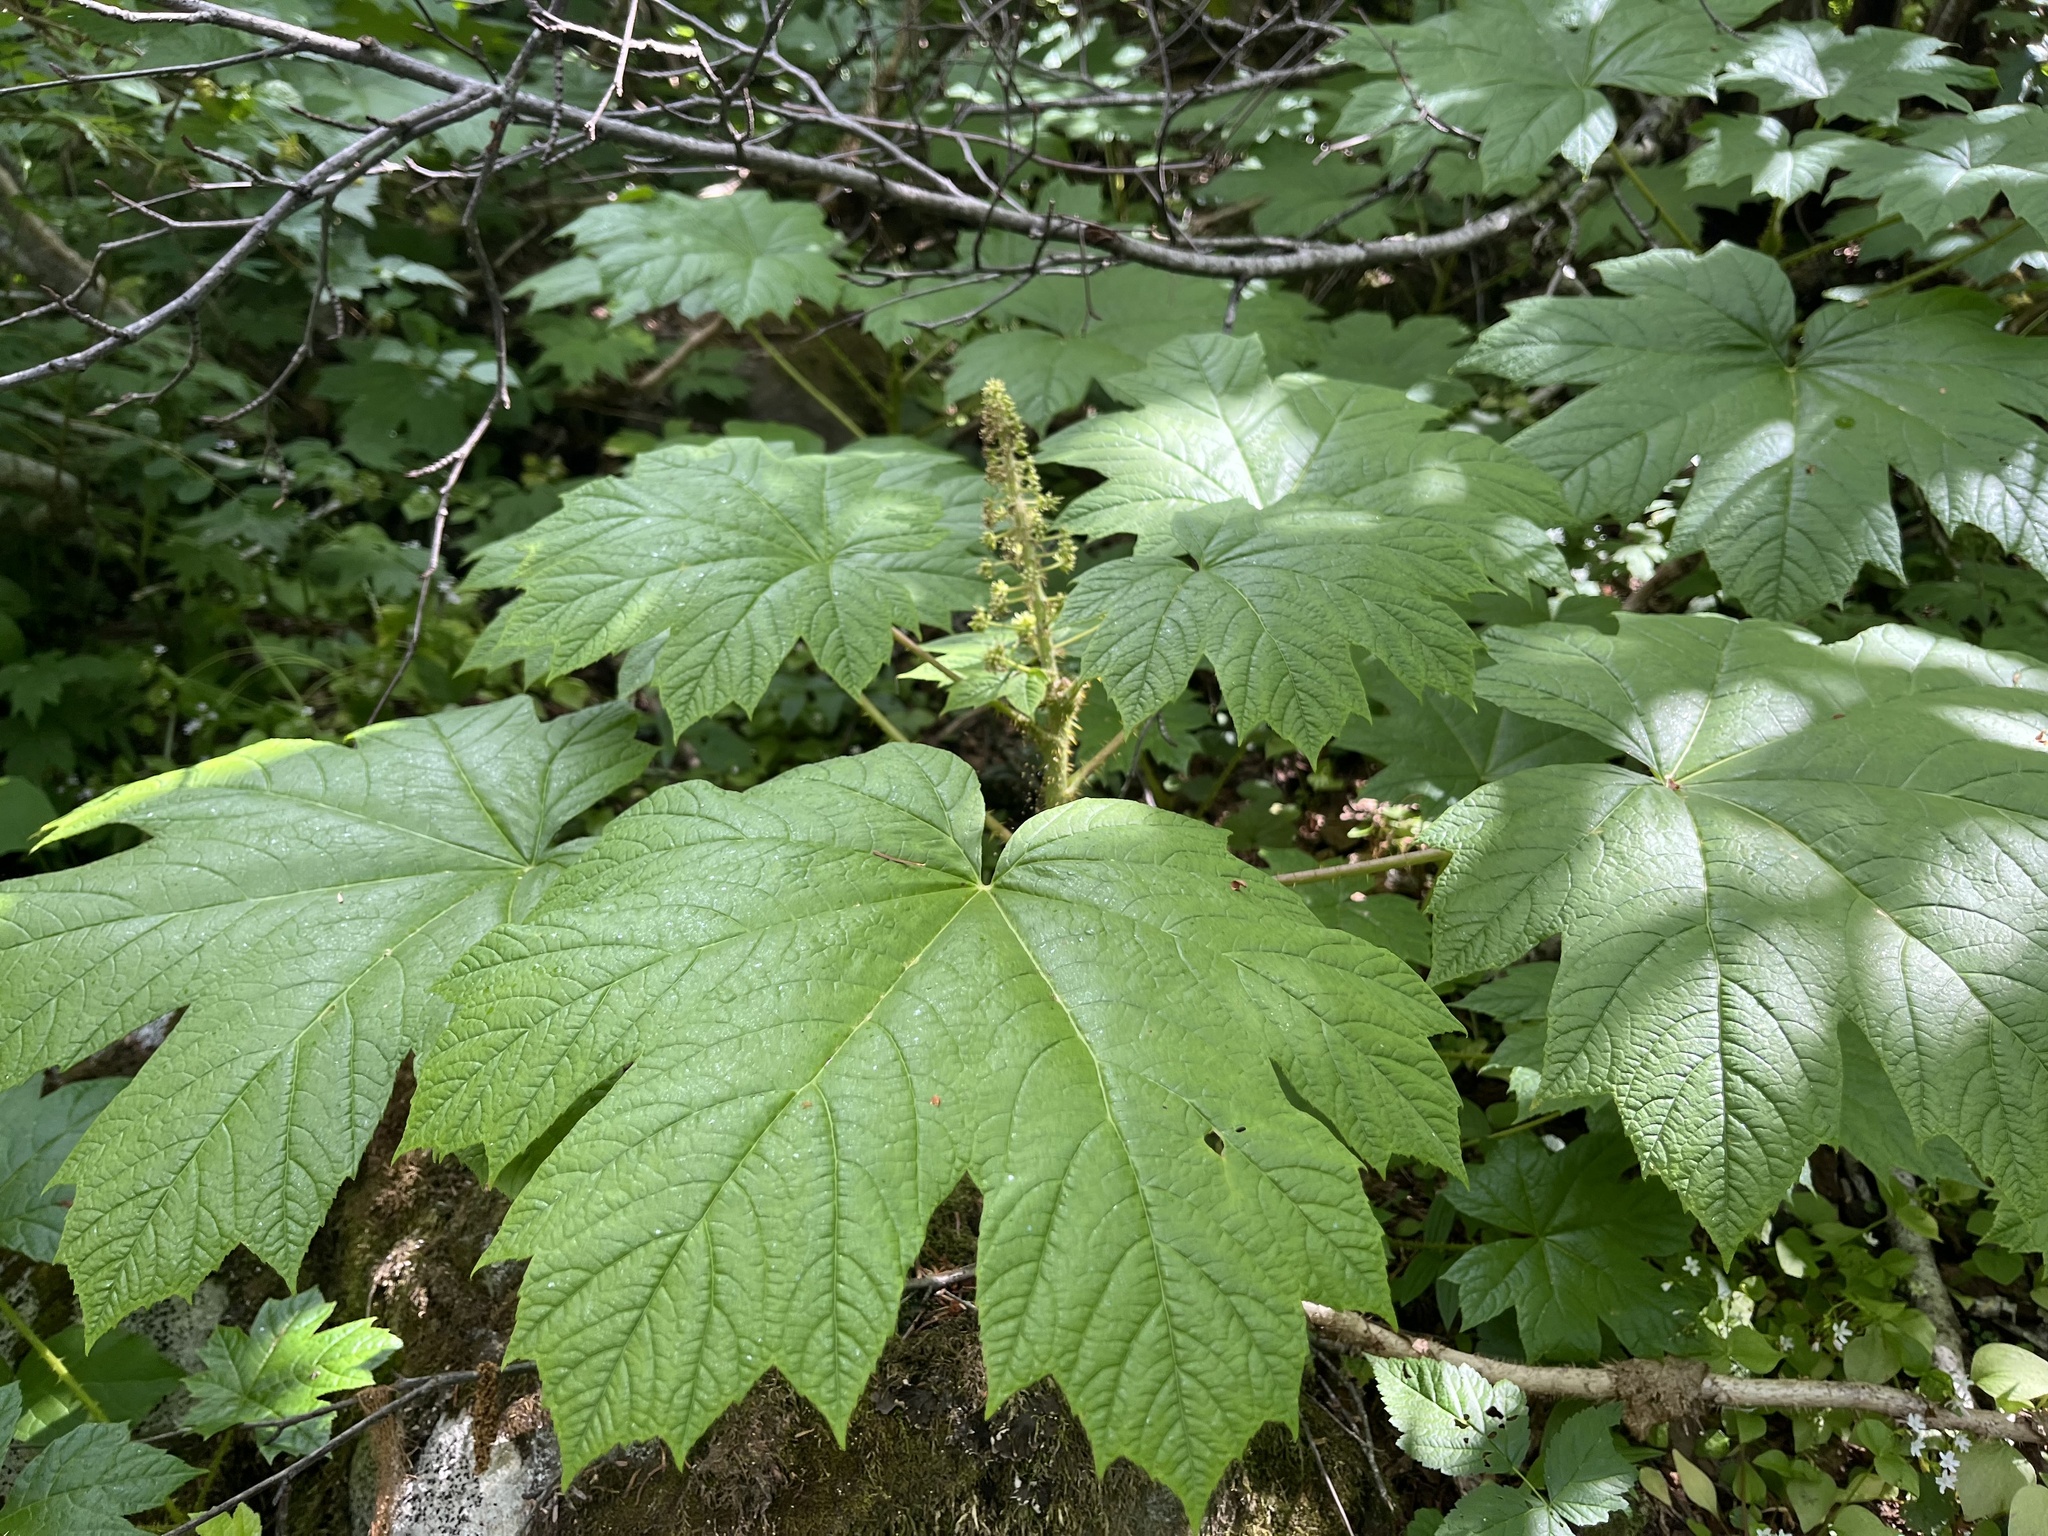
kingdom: Plantae
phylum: Tracheophyta
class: Magnoliopsida
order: Apiales
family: Araliaceae
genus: Oplopanax
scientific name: Oplopanax horridus
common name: Devil's walking-stick
